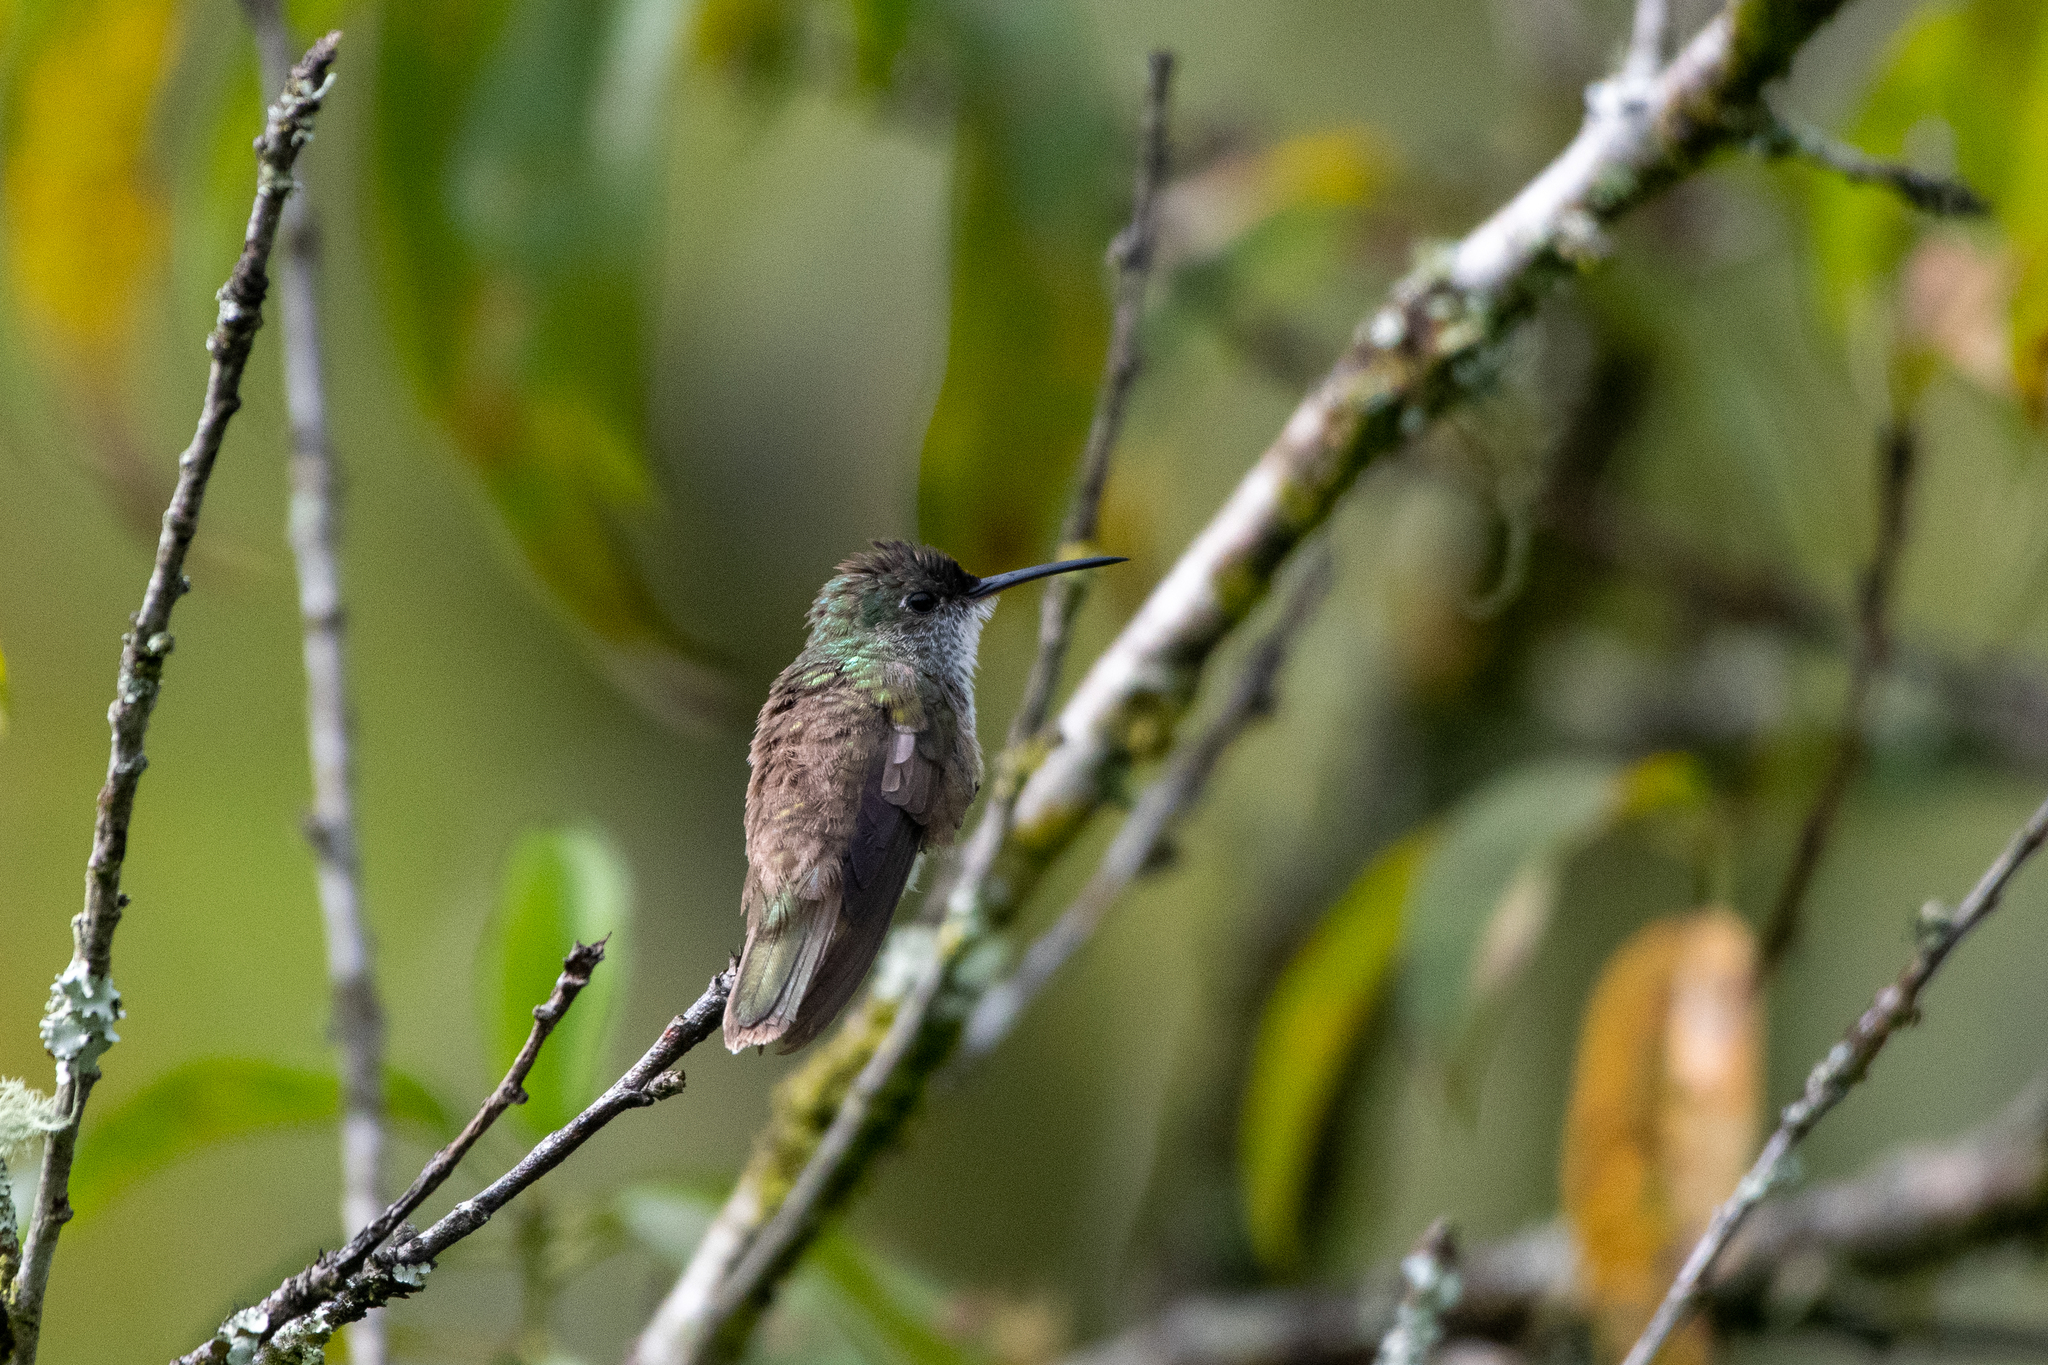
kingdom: Animalia
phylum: Chordata
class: Aves
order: Apodiformes
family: Trochilidae
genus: Saucerottia
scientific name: Saucerottia cyanocephala
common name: Azure-crowned hummingbird
